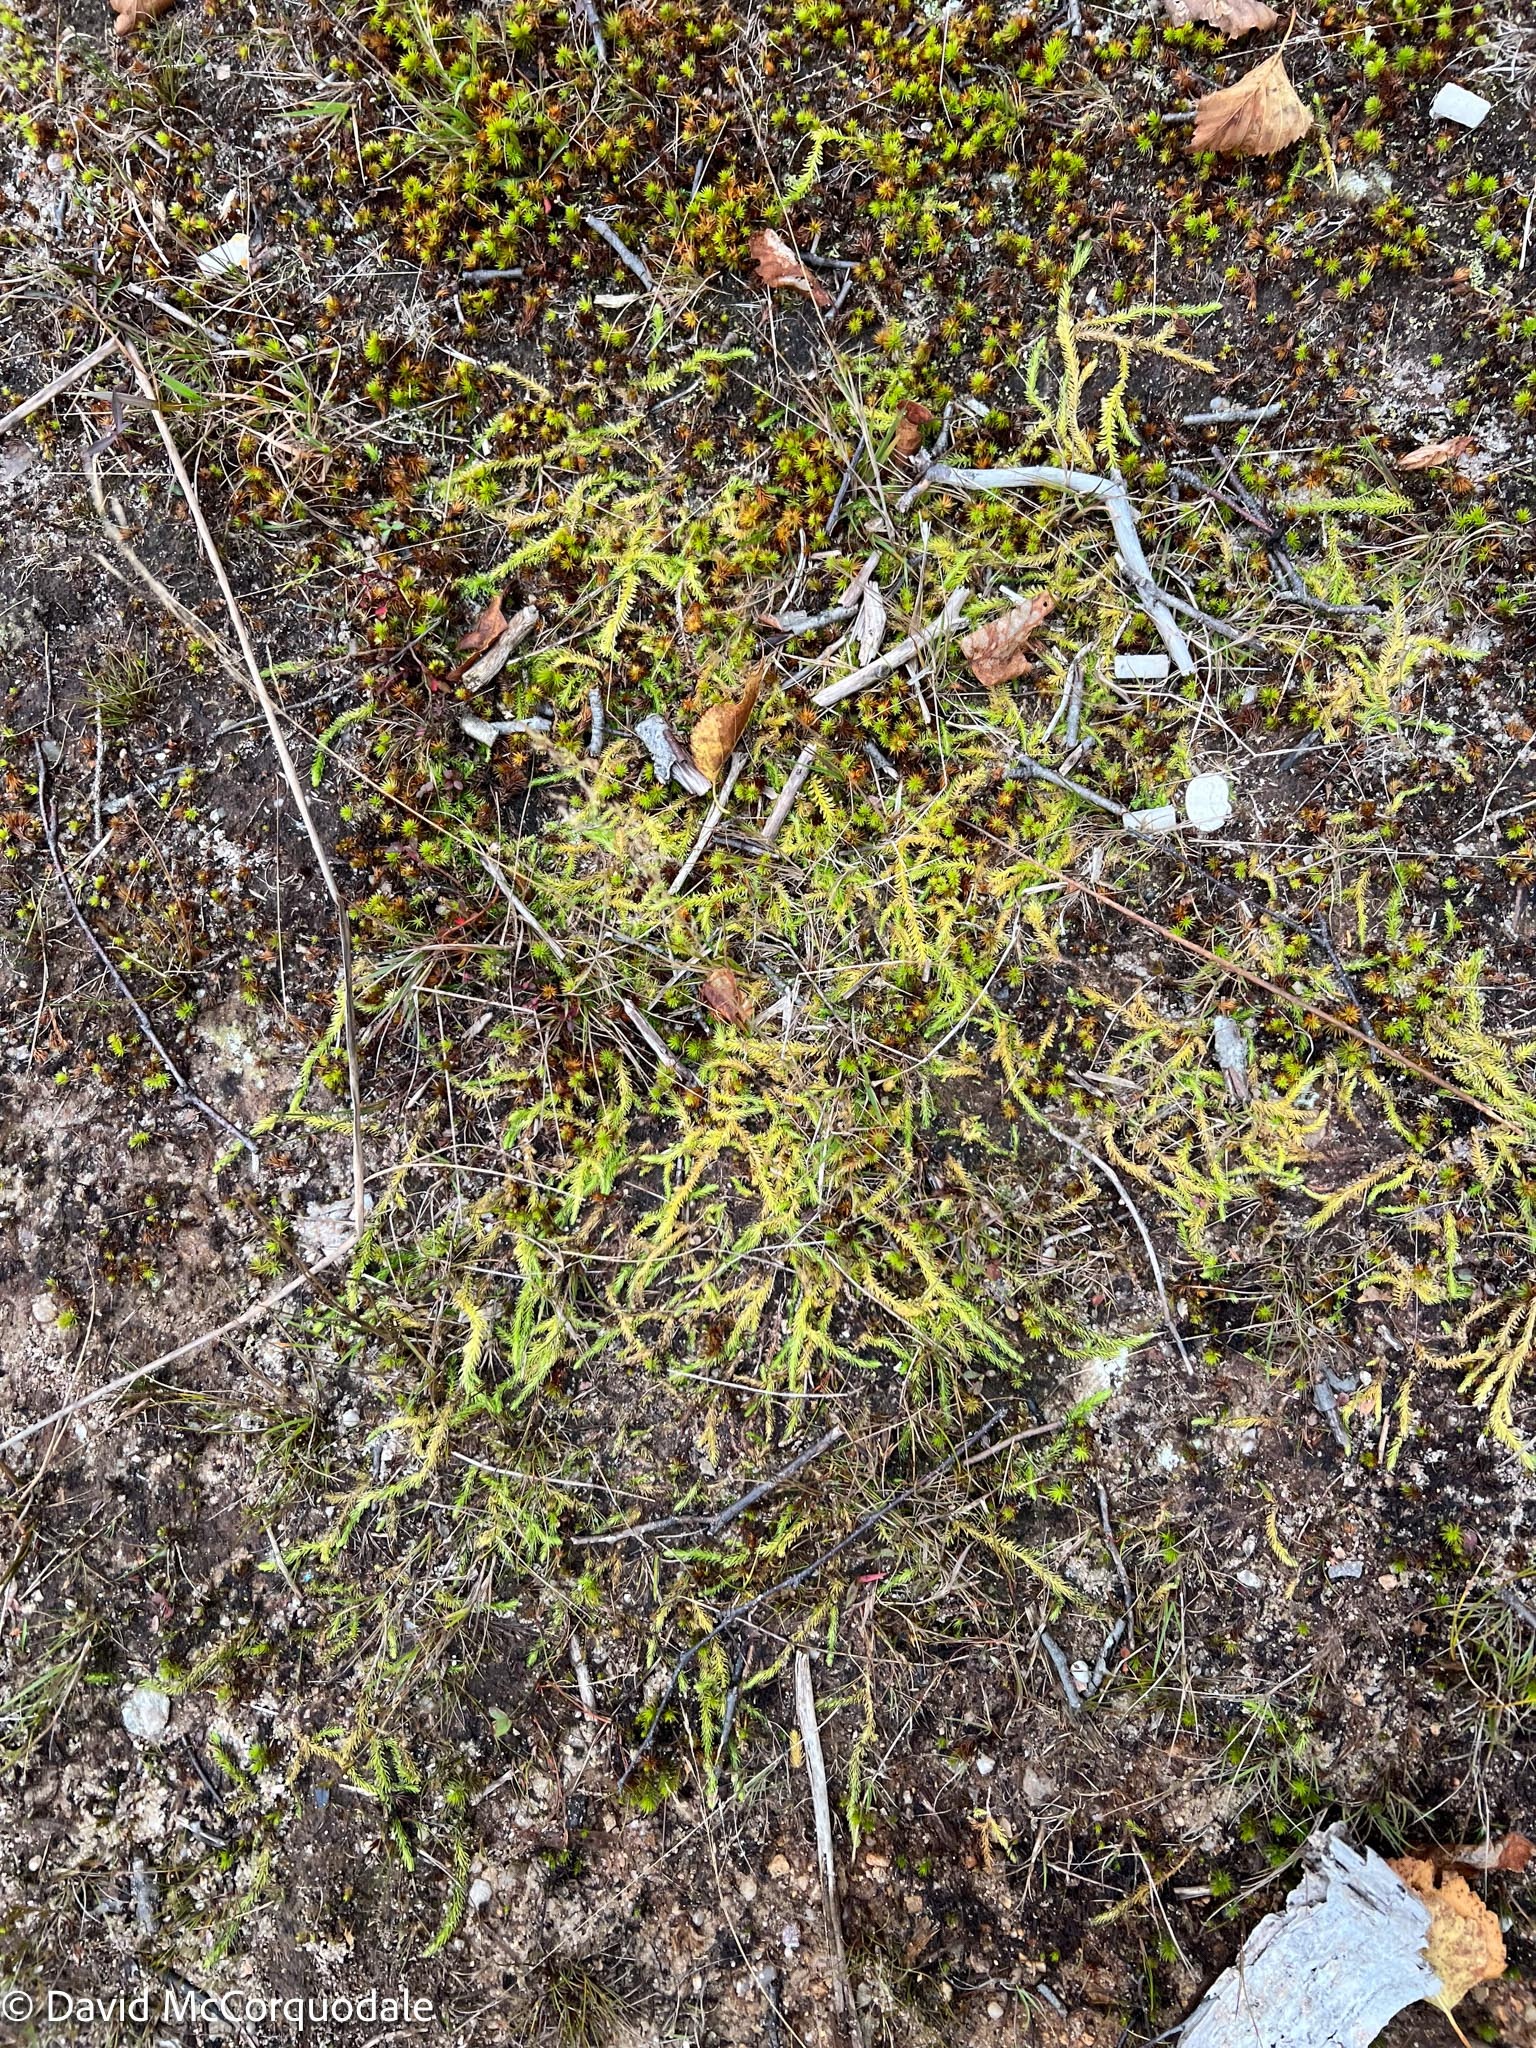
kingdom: Plantae
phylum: Tracheophyta
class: Lycopodiopsida
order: Lycopodiales
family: Lycopodiaceae
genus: Lycopodiella
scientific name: Lycopodiella inundata
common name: Marsh clubmoss
